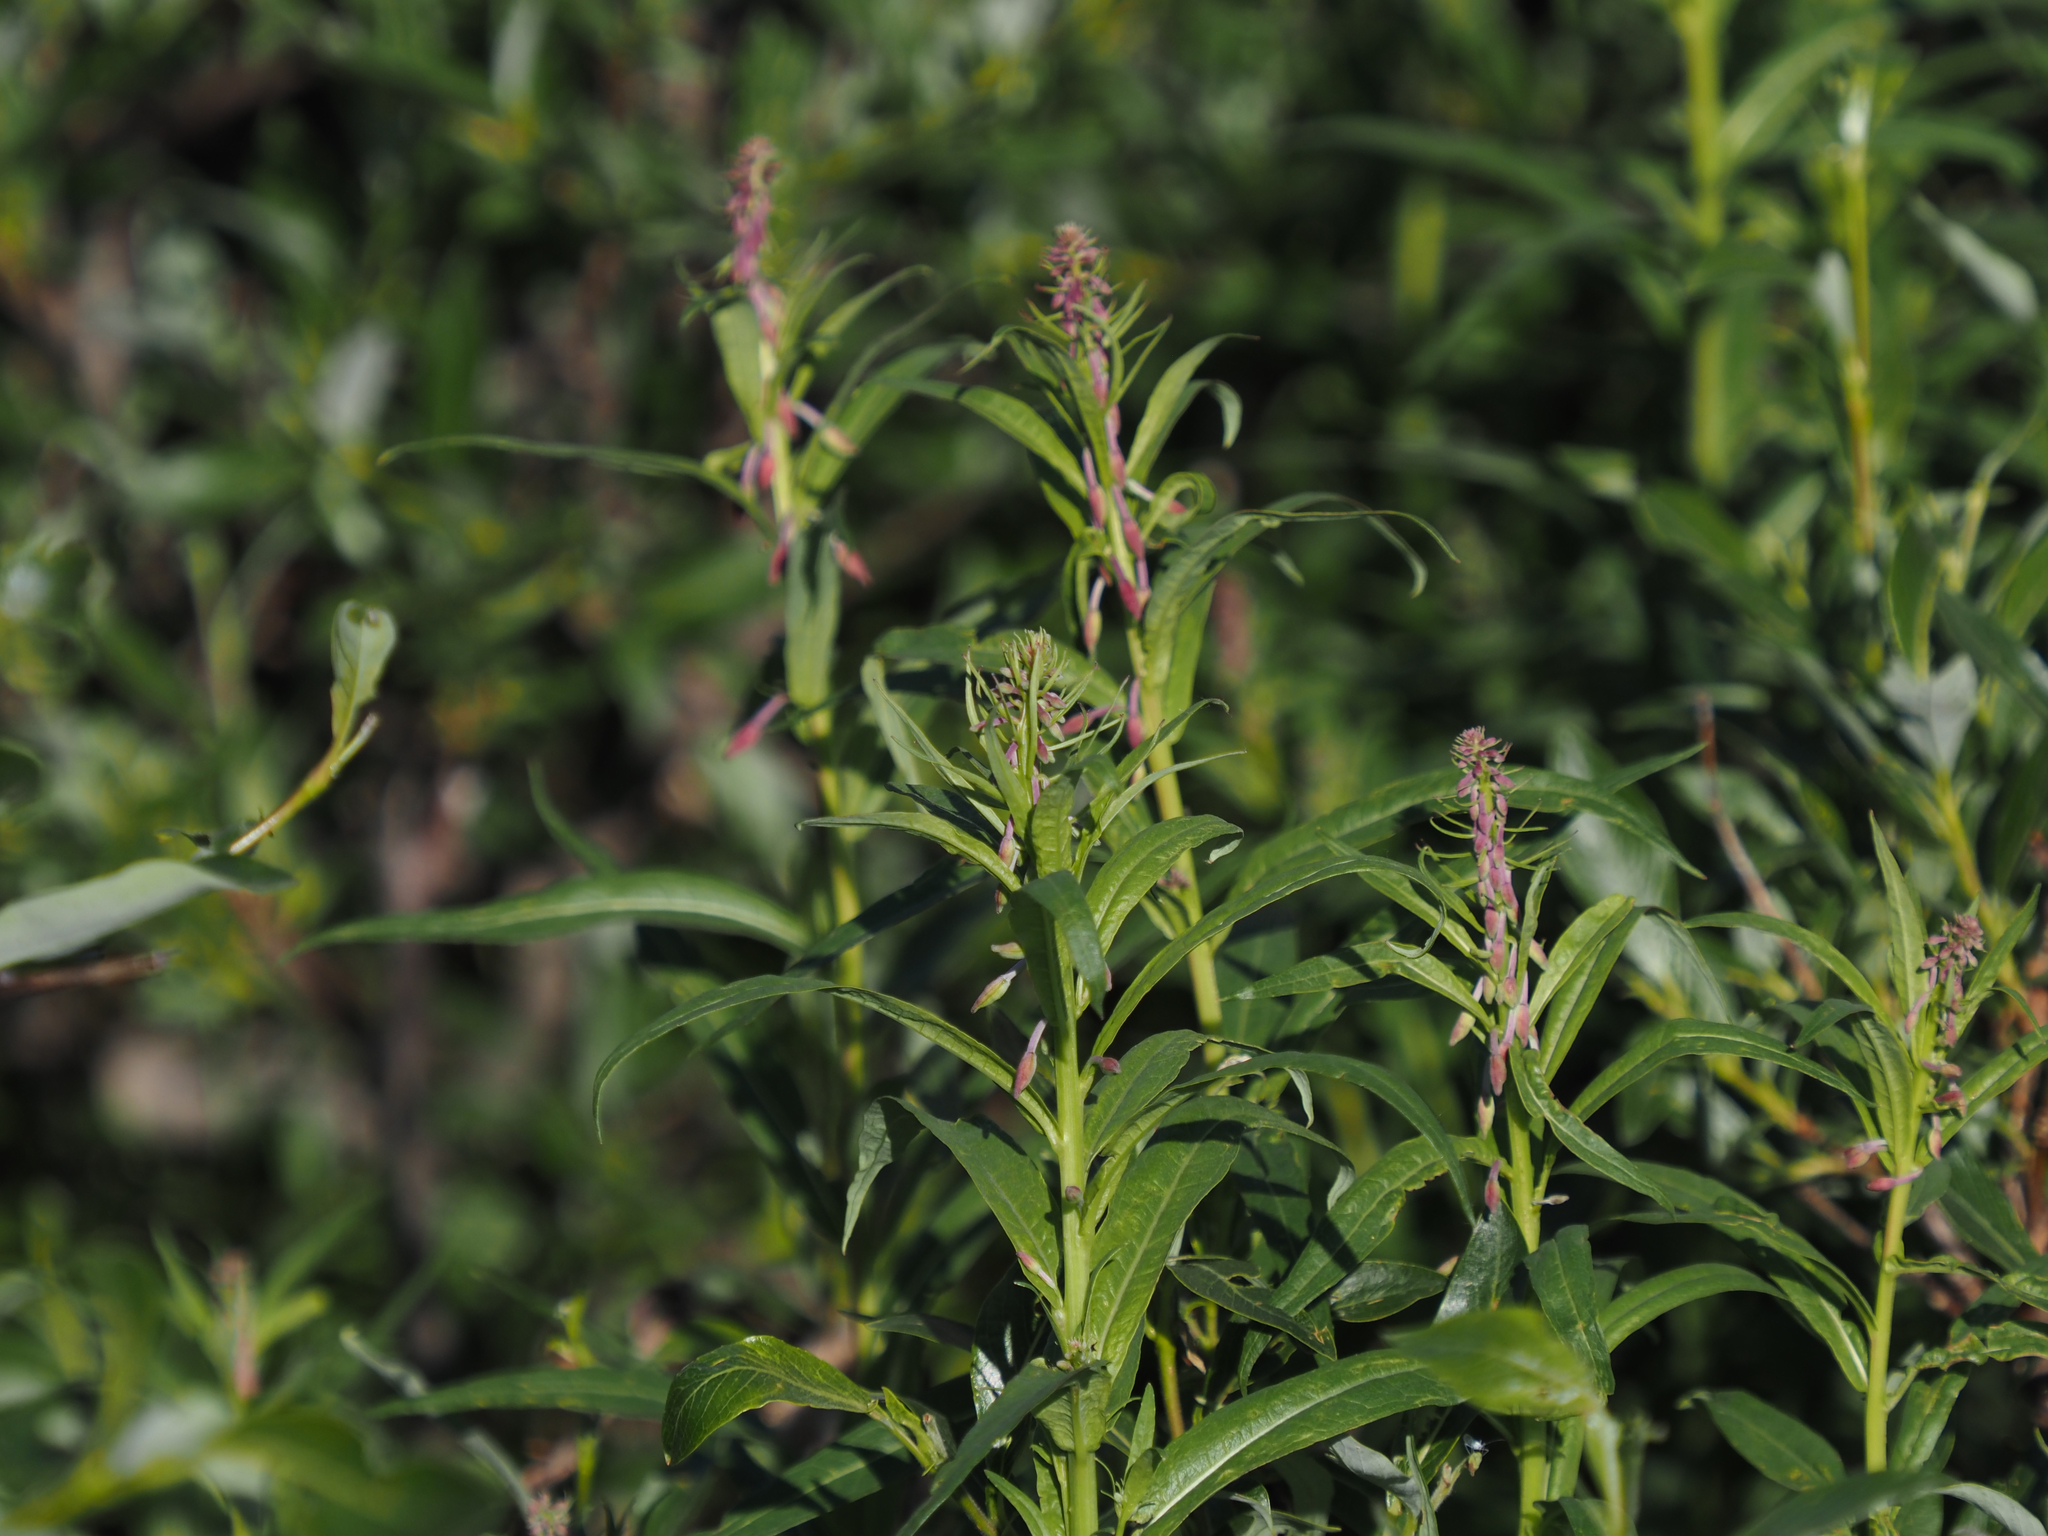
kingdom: Plantae
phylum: Tracheophyta
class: Magnoliopsida
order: Myrtales
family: Onagraceae
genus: Chamaenerion
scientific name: Chamaenerion angustifolium
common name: Fireweed
